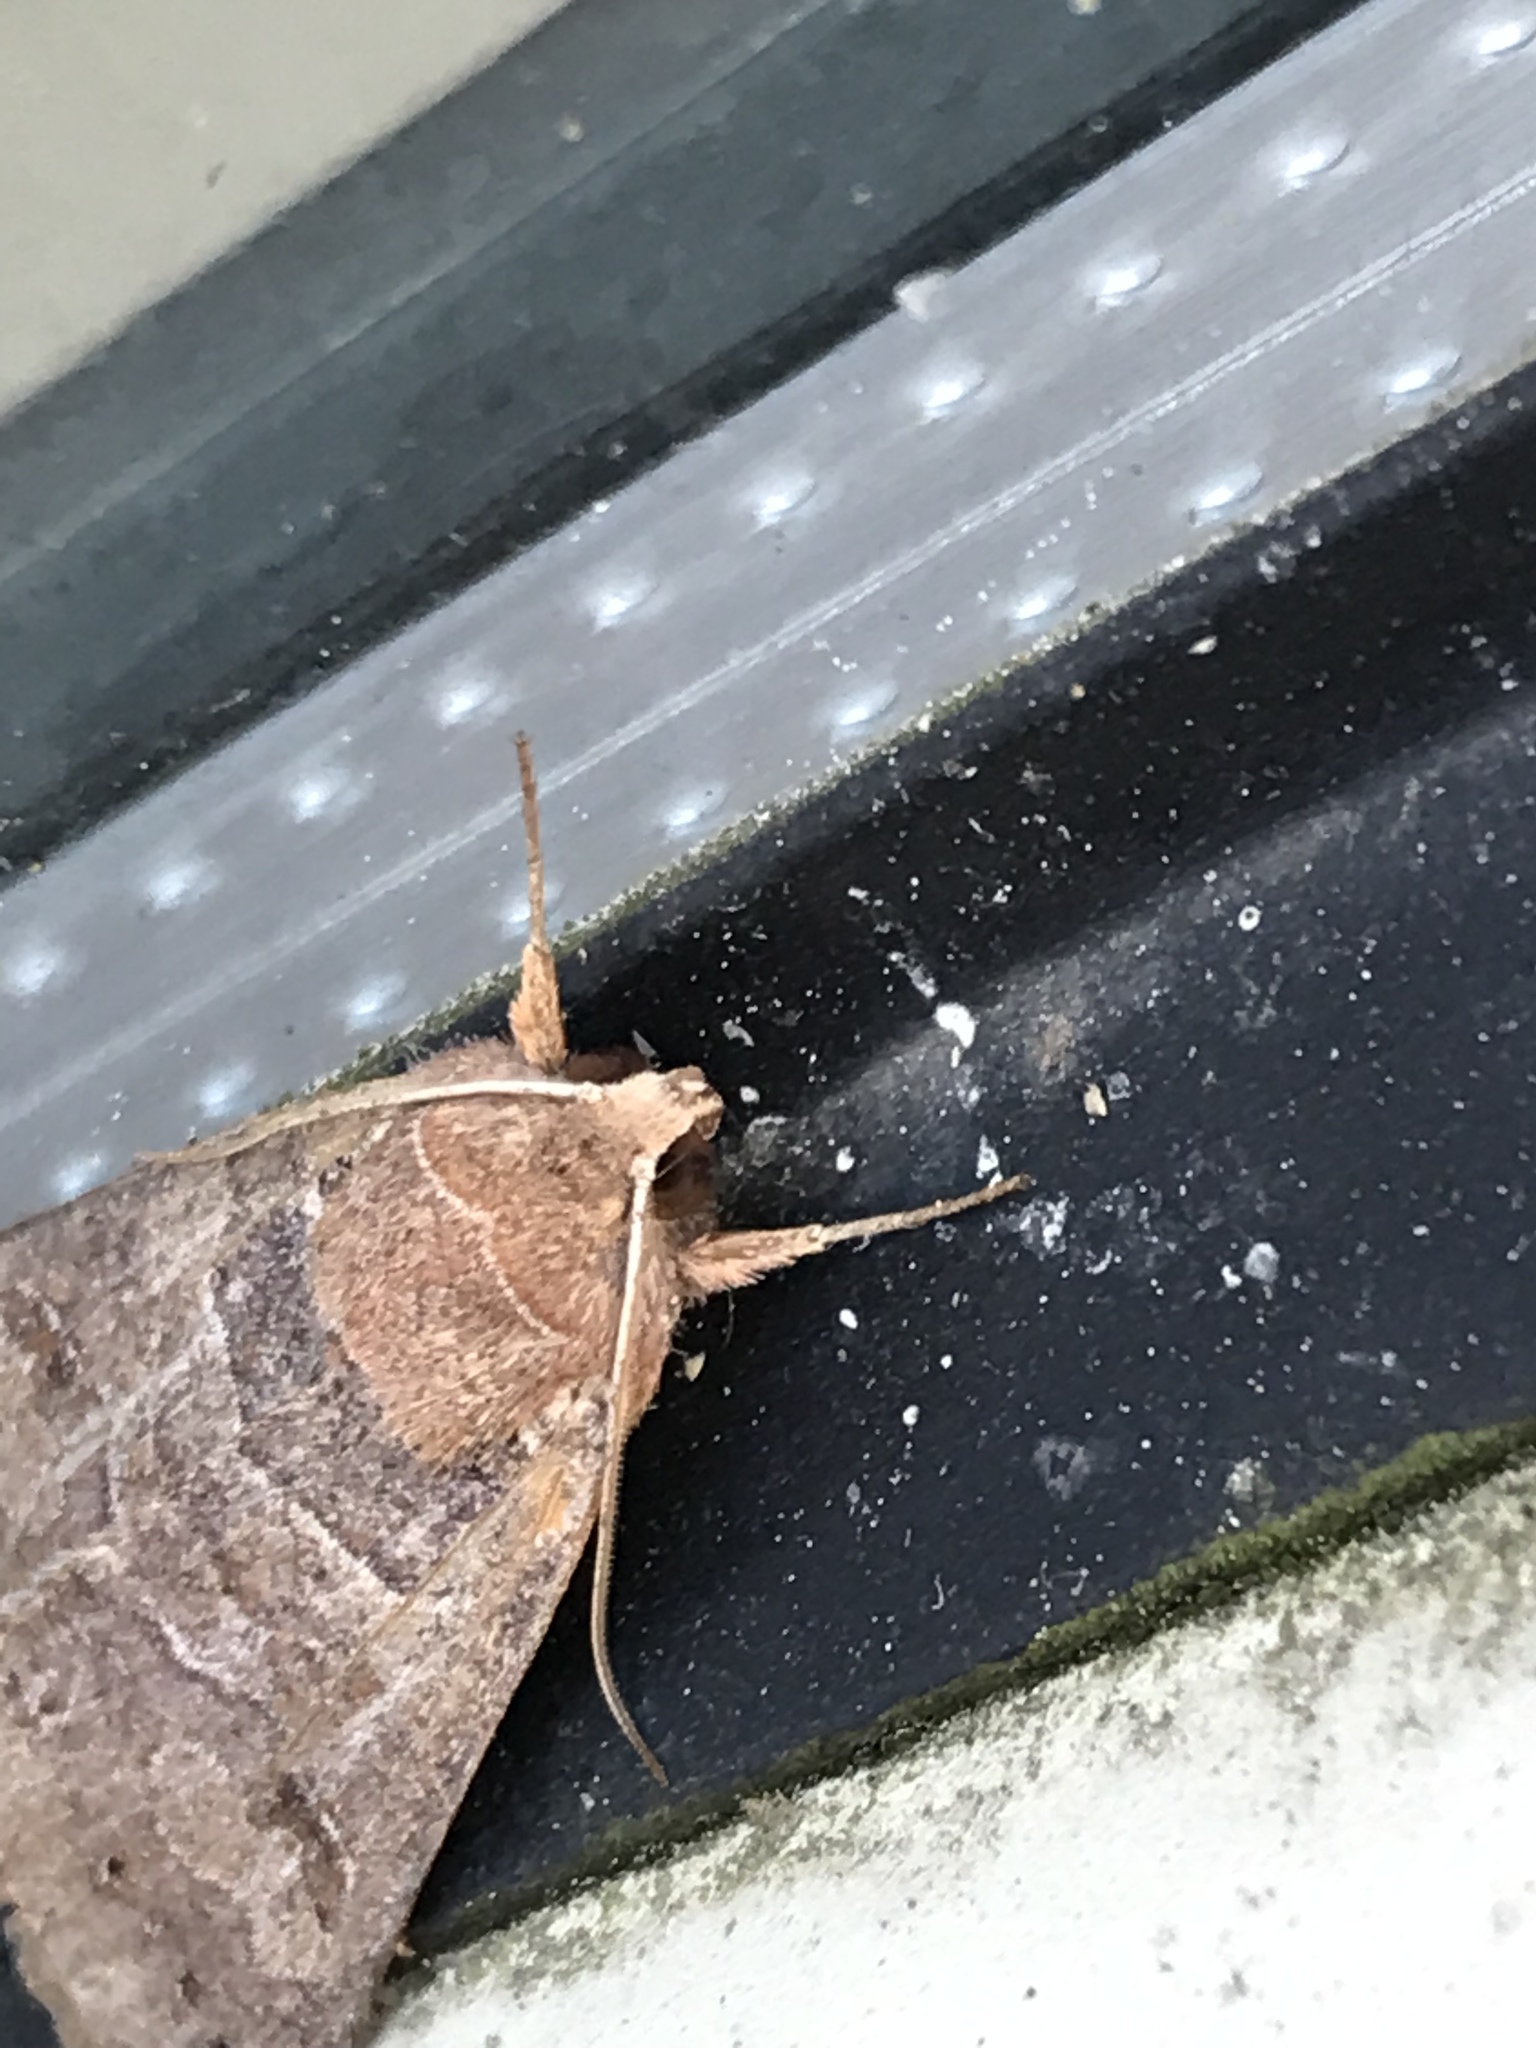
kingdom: Animalia
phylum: Arthropoda
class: Insecta
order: Lepidoptera
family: Erebidae
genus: Cissusa
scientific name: Cissusa spadix
